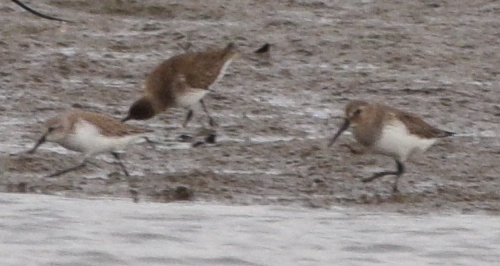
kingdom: Animalia
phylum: Chordata
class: Aves
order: Charadriiformes
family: Scolopacidae
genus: Calidris
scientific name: Calidris alpina
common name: Dunlin
